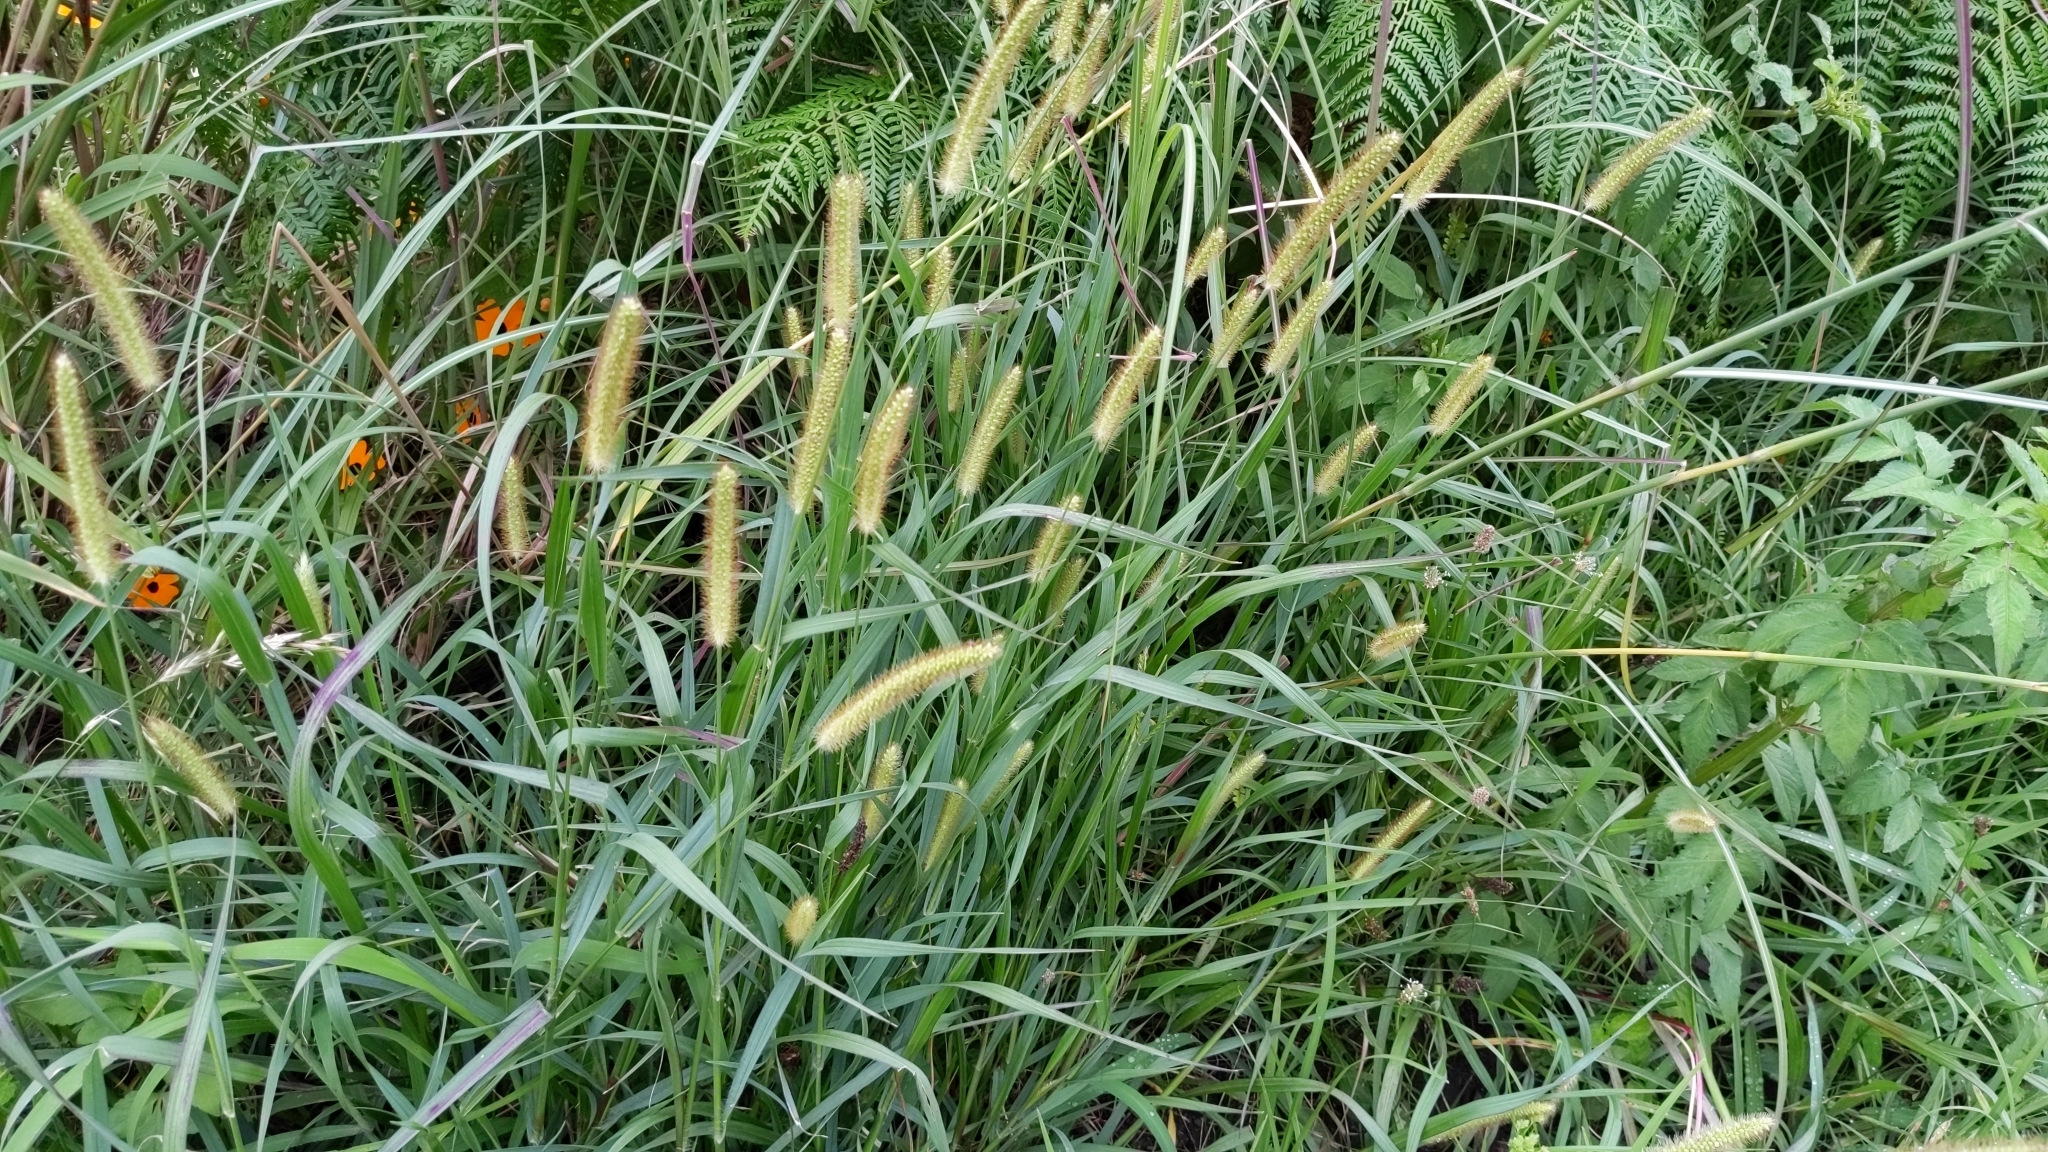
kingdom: Plantae
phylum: Tracheophyta
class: Liliopsida
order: Poales
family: Poaceae
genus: Setaria
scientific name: Setaria pumila
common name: Yellow bristle-grass
